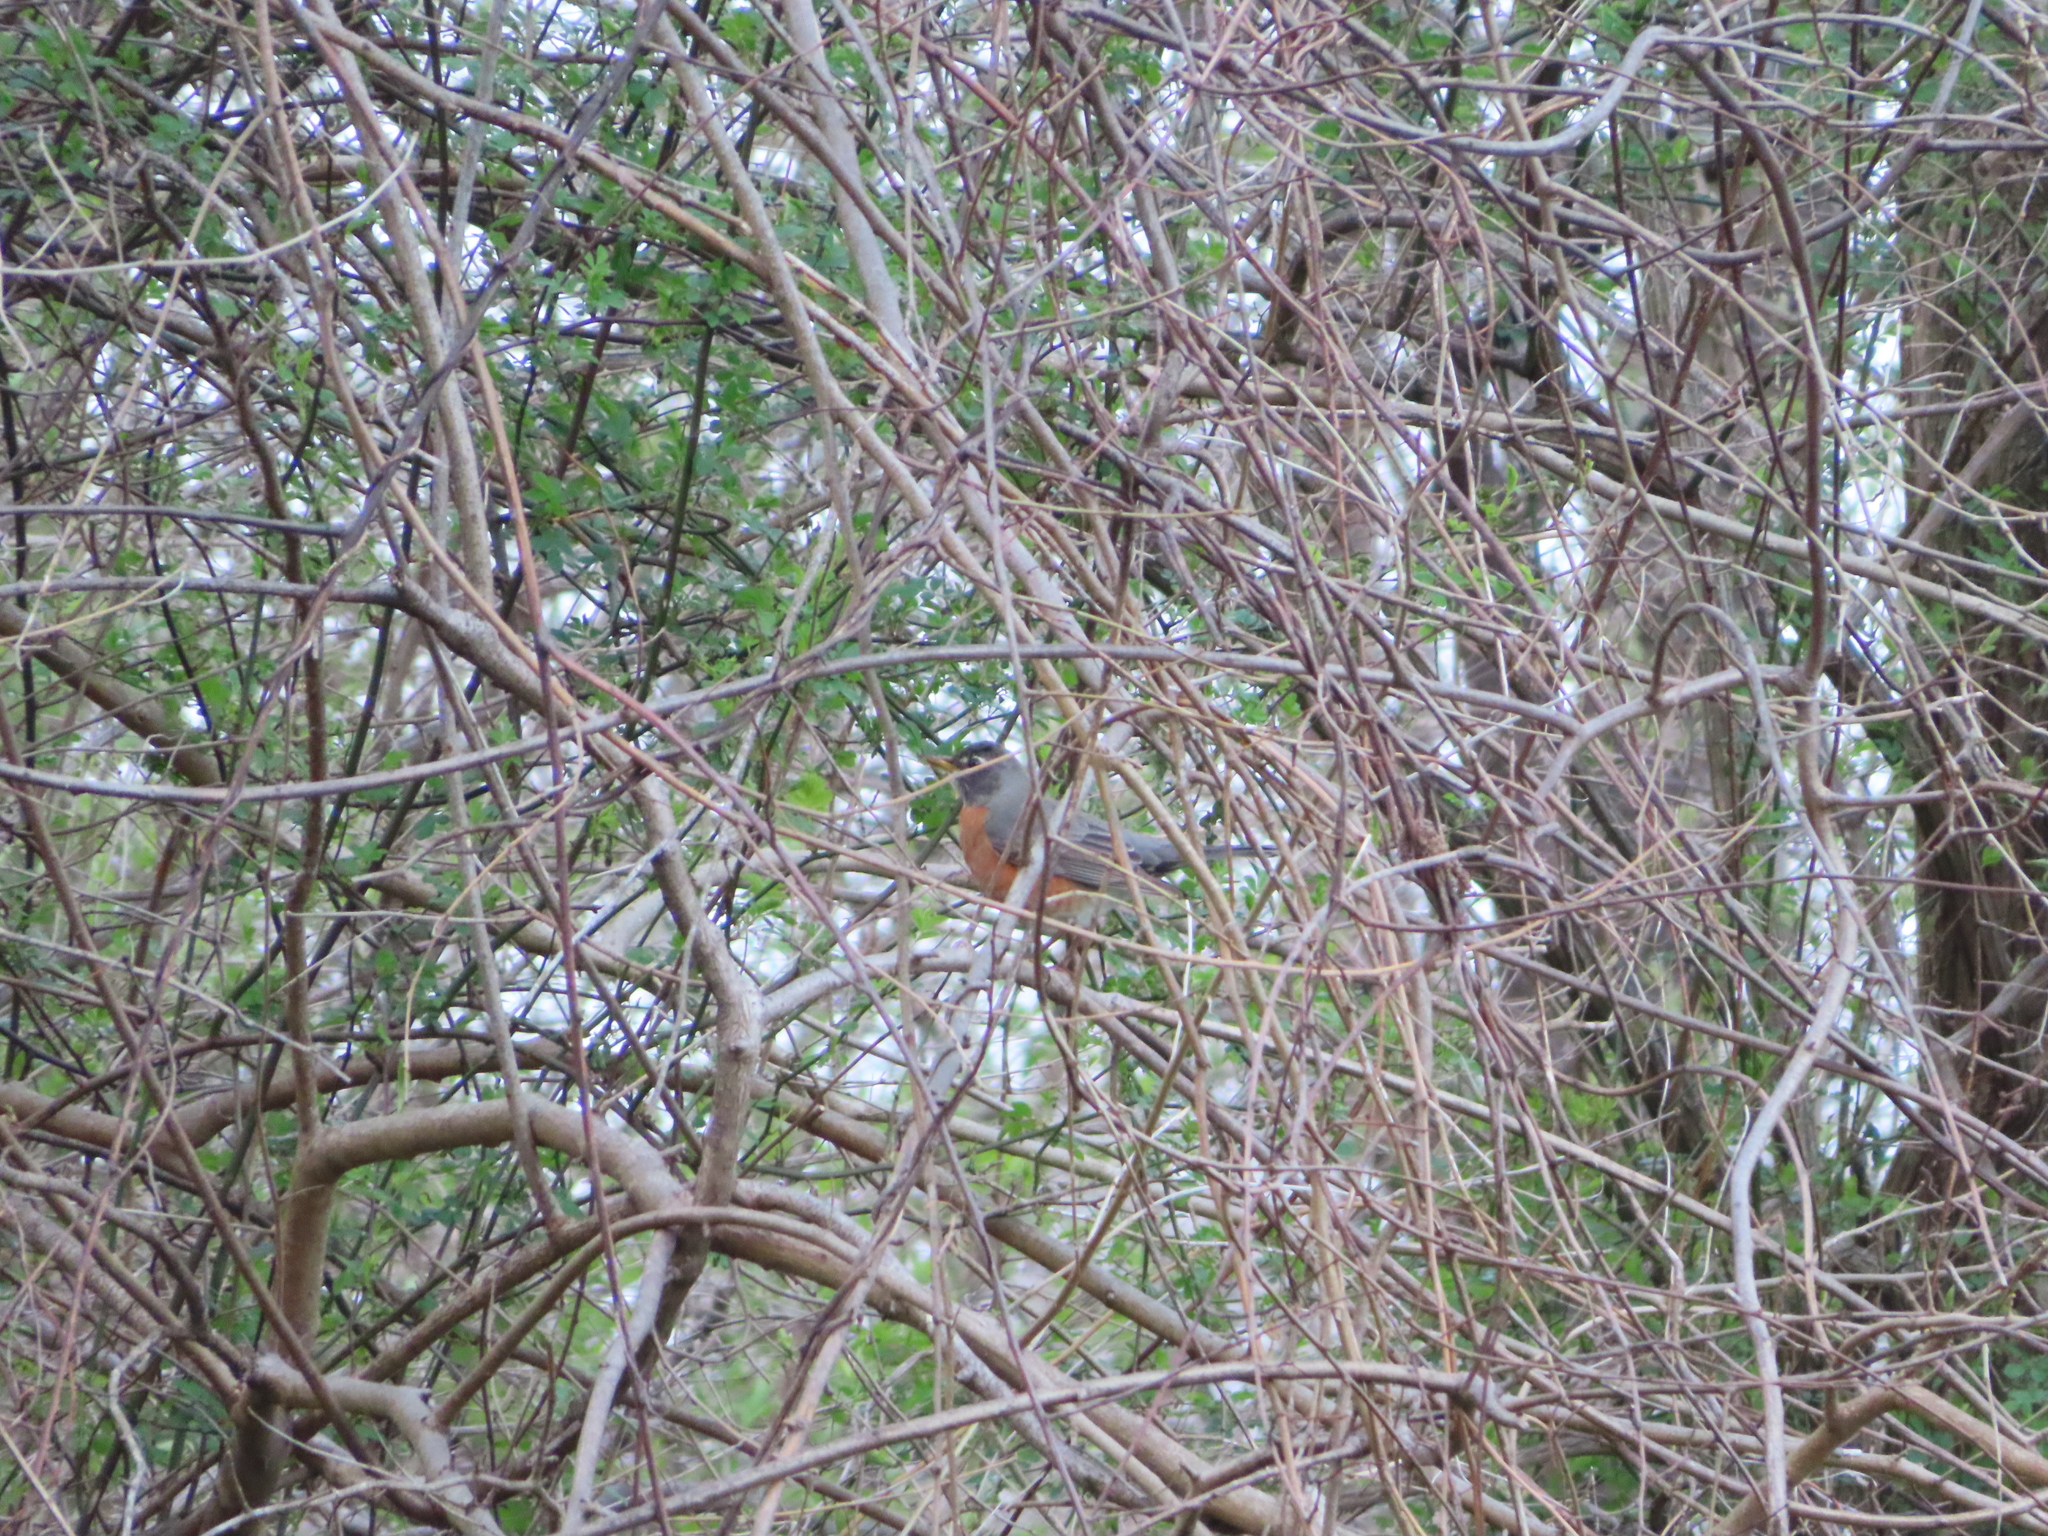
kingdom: Animalia
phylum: Chordata
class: Aves
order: Passeriformes
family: Turdidae
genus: Turdus
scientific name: Turdus migratorius
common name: American robin
